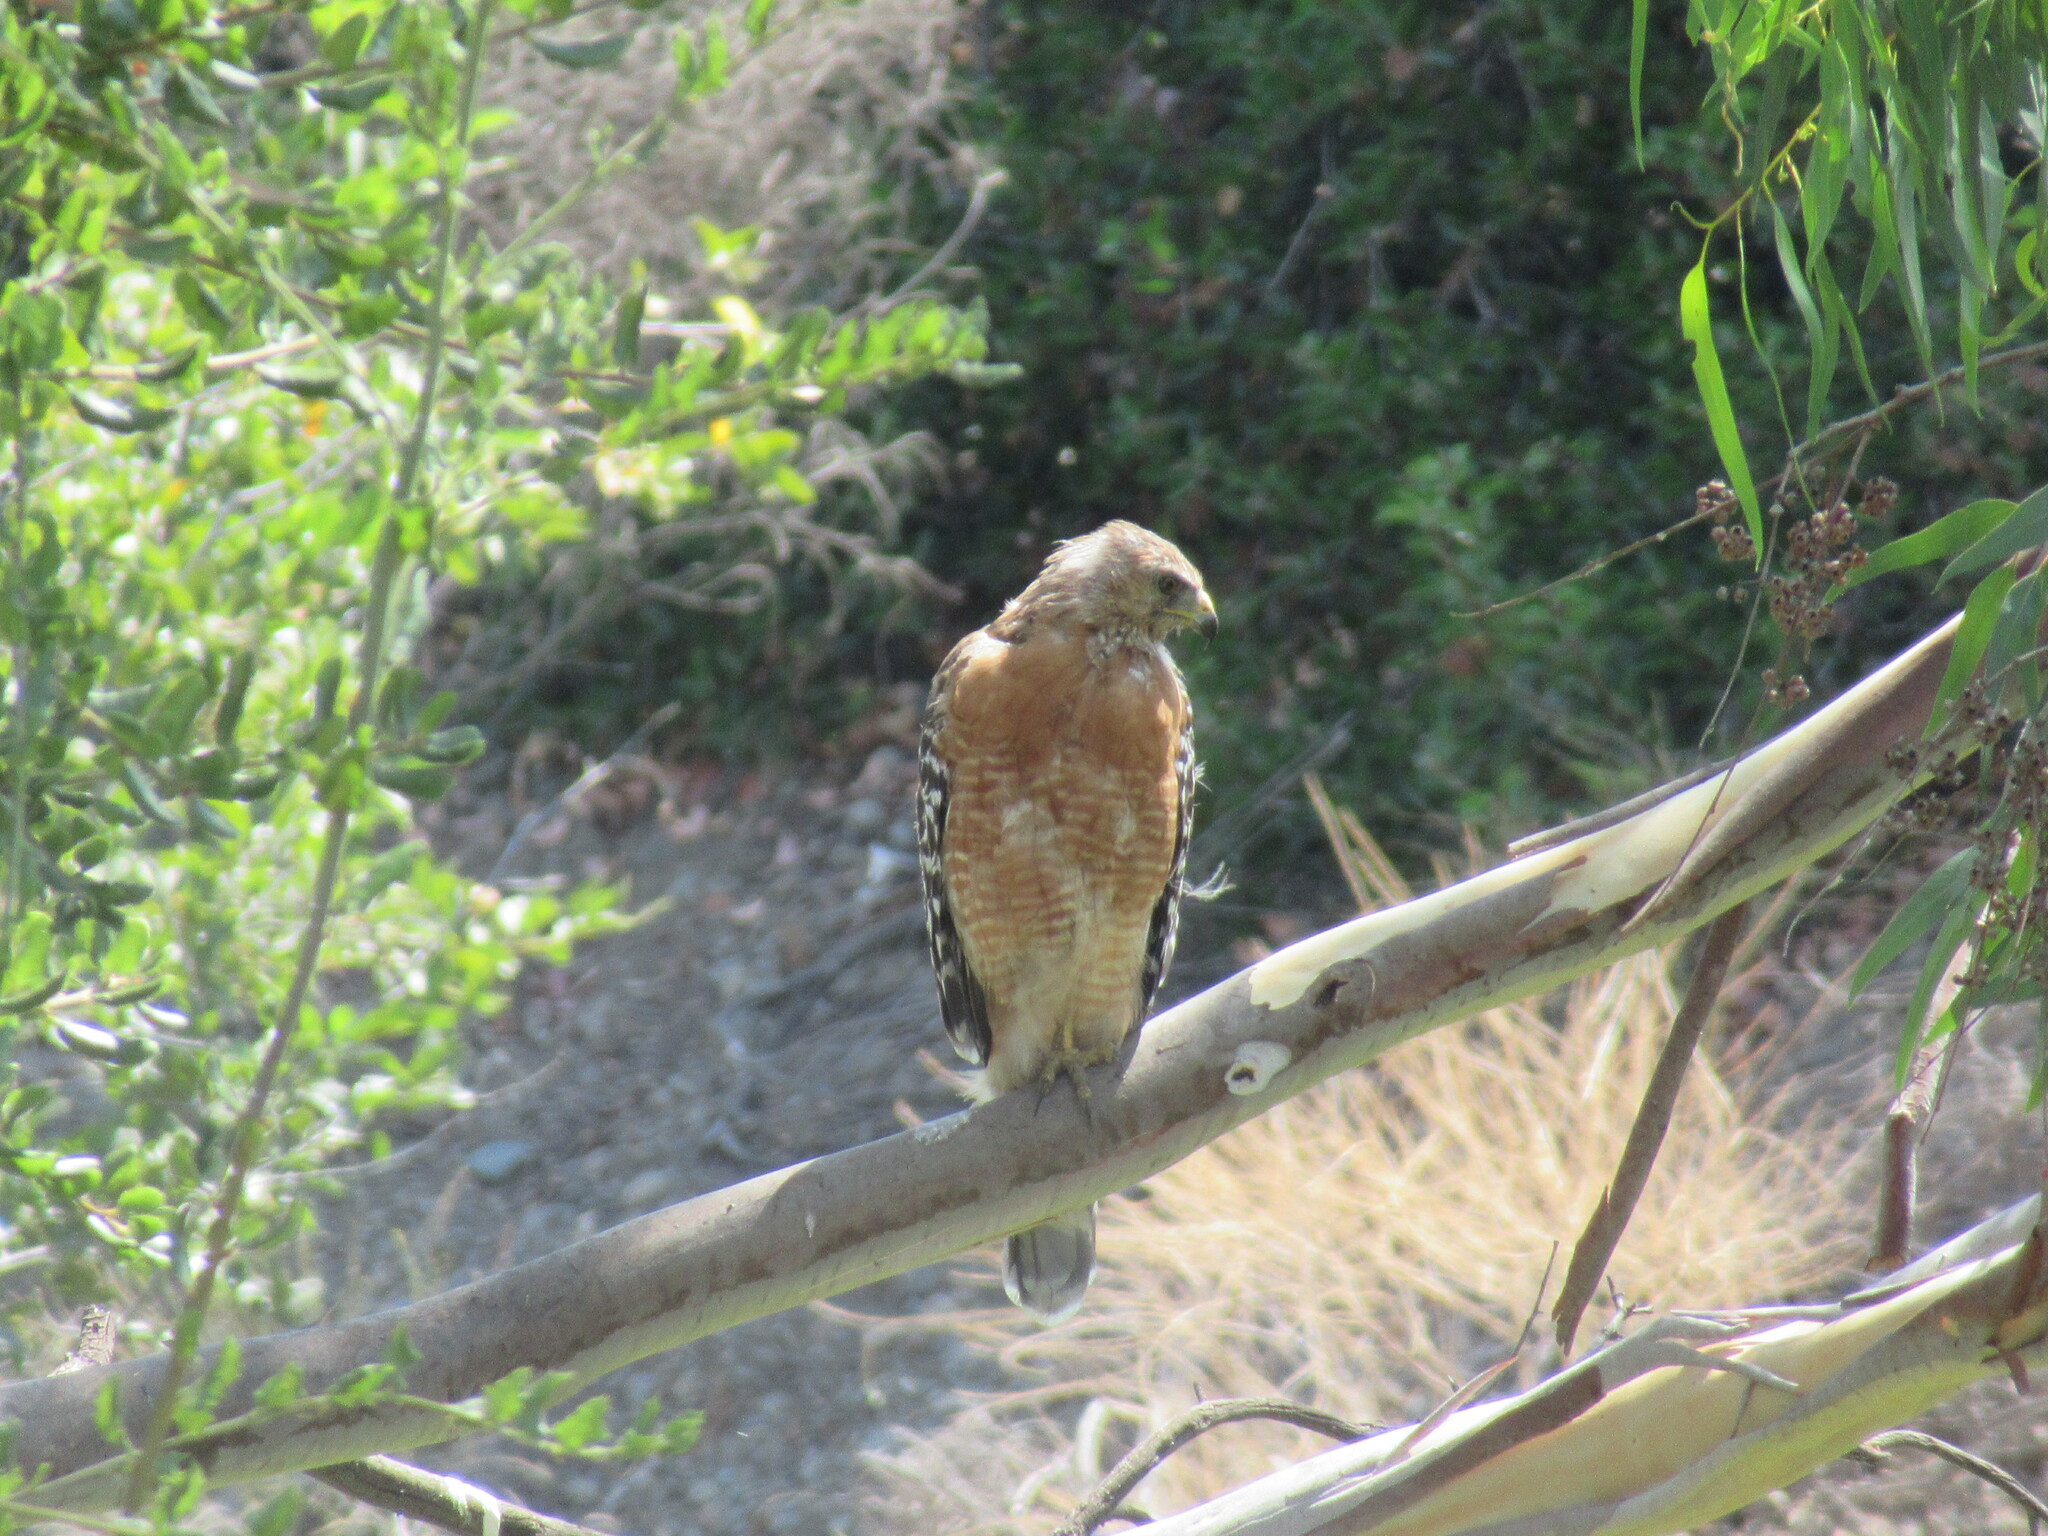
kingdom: Animalia
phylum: Chordata
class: Aves
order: Accipitriformes
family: Accipitridae
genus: Buteo
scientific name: Buteo lineatus
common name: Red-shouldered hawk
